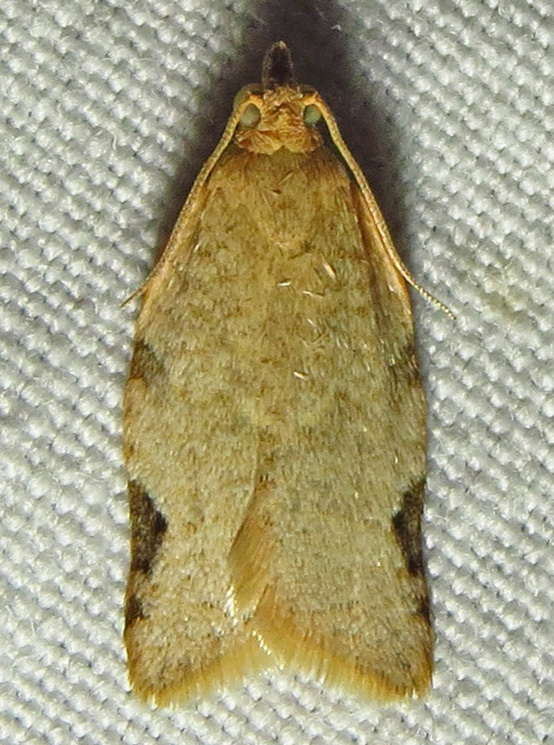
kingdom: Animalia
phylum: Arthropoda
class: Insecta
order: Lepidoptera
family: Tortricidae
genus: Clepsis
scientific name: Clepsis virescana
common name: Greenish apple moth
